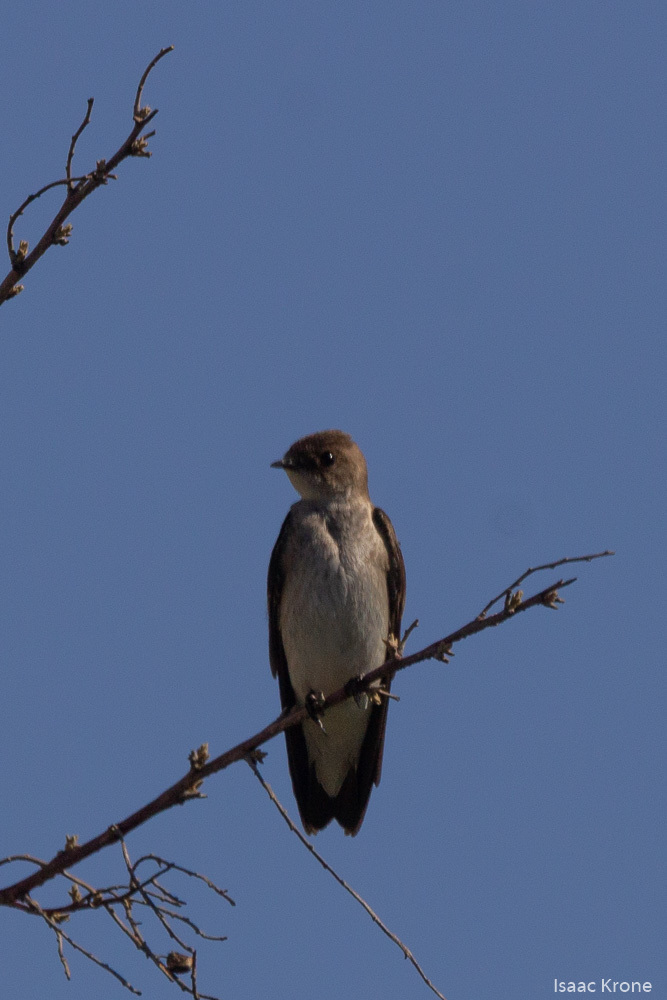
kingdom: Animalia
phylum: Chordata
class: Aves
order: Passeriformes
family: Hirundinidae
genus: Stelgidopteryx
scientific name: Stelgidopteryx serripennis
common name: Northern rough-winged swallow
